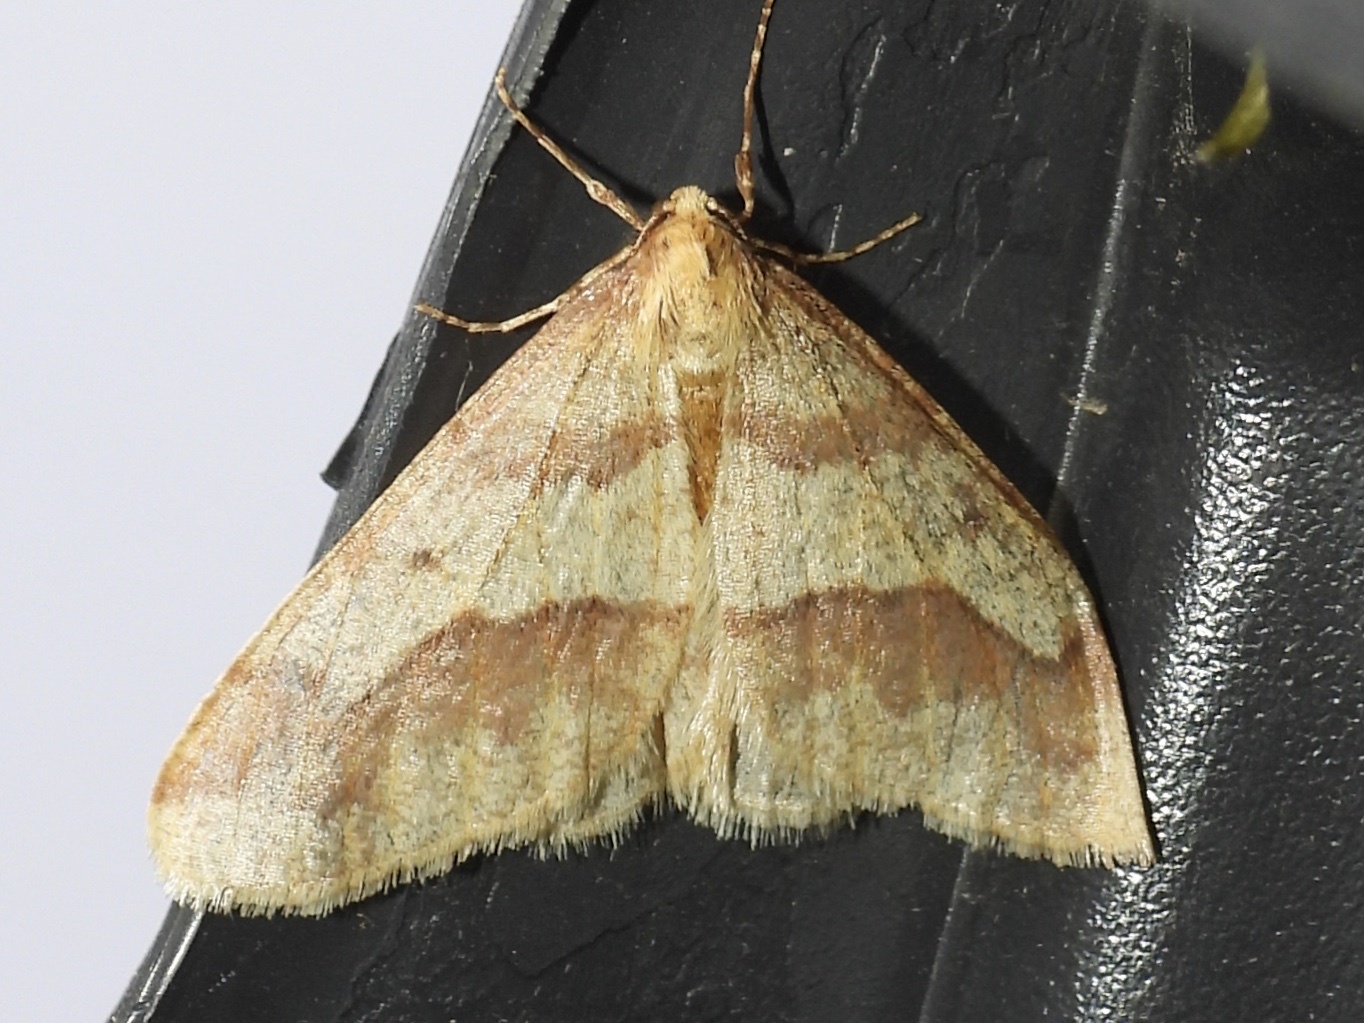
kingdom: Animalia
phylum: Arthropoda
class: Insecta
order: Lepidoptera
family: Geometridae
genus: Erannis
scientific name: Erannis tiliaria
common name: Linden looper
